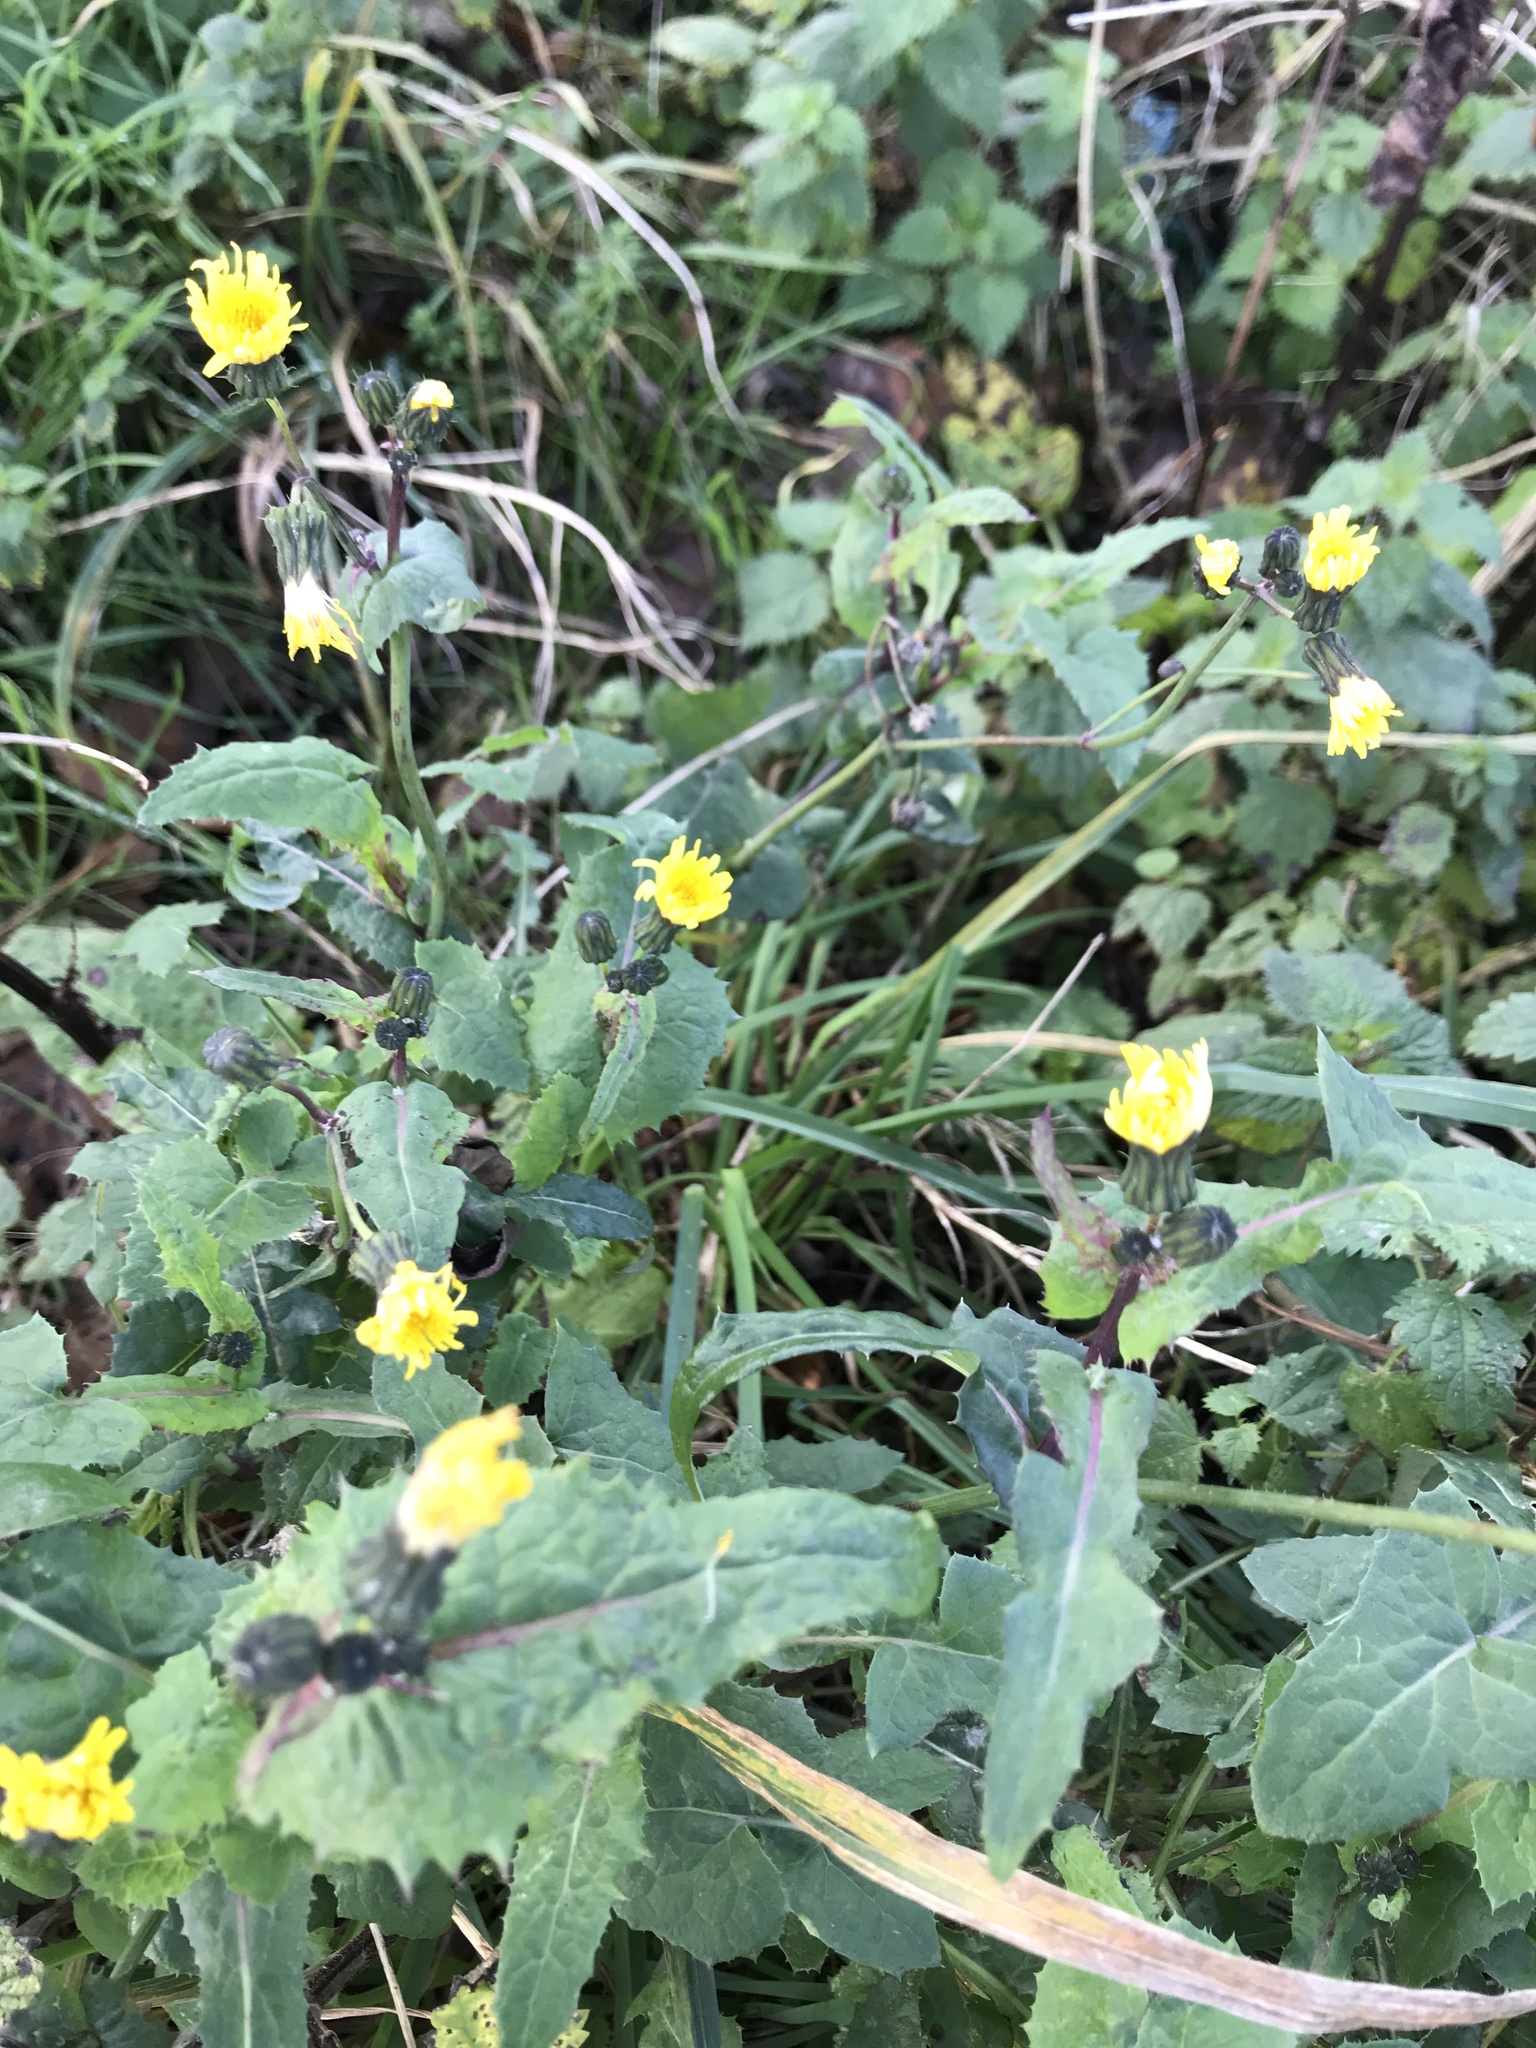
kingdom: Plantae
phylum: Tracheophyta
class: Magnoliopsida
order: Asterales
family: Asteraceae
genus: Sonchus
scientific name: Sonchus oleraceus
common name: Common sowthistle
